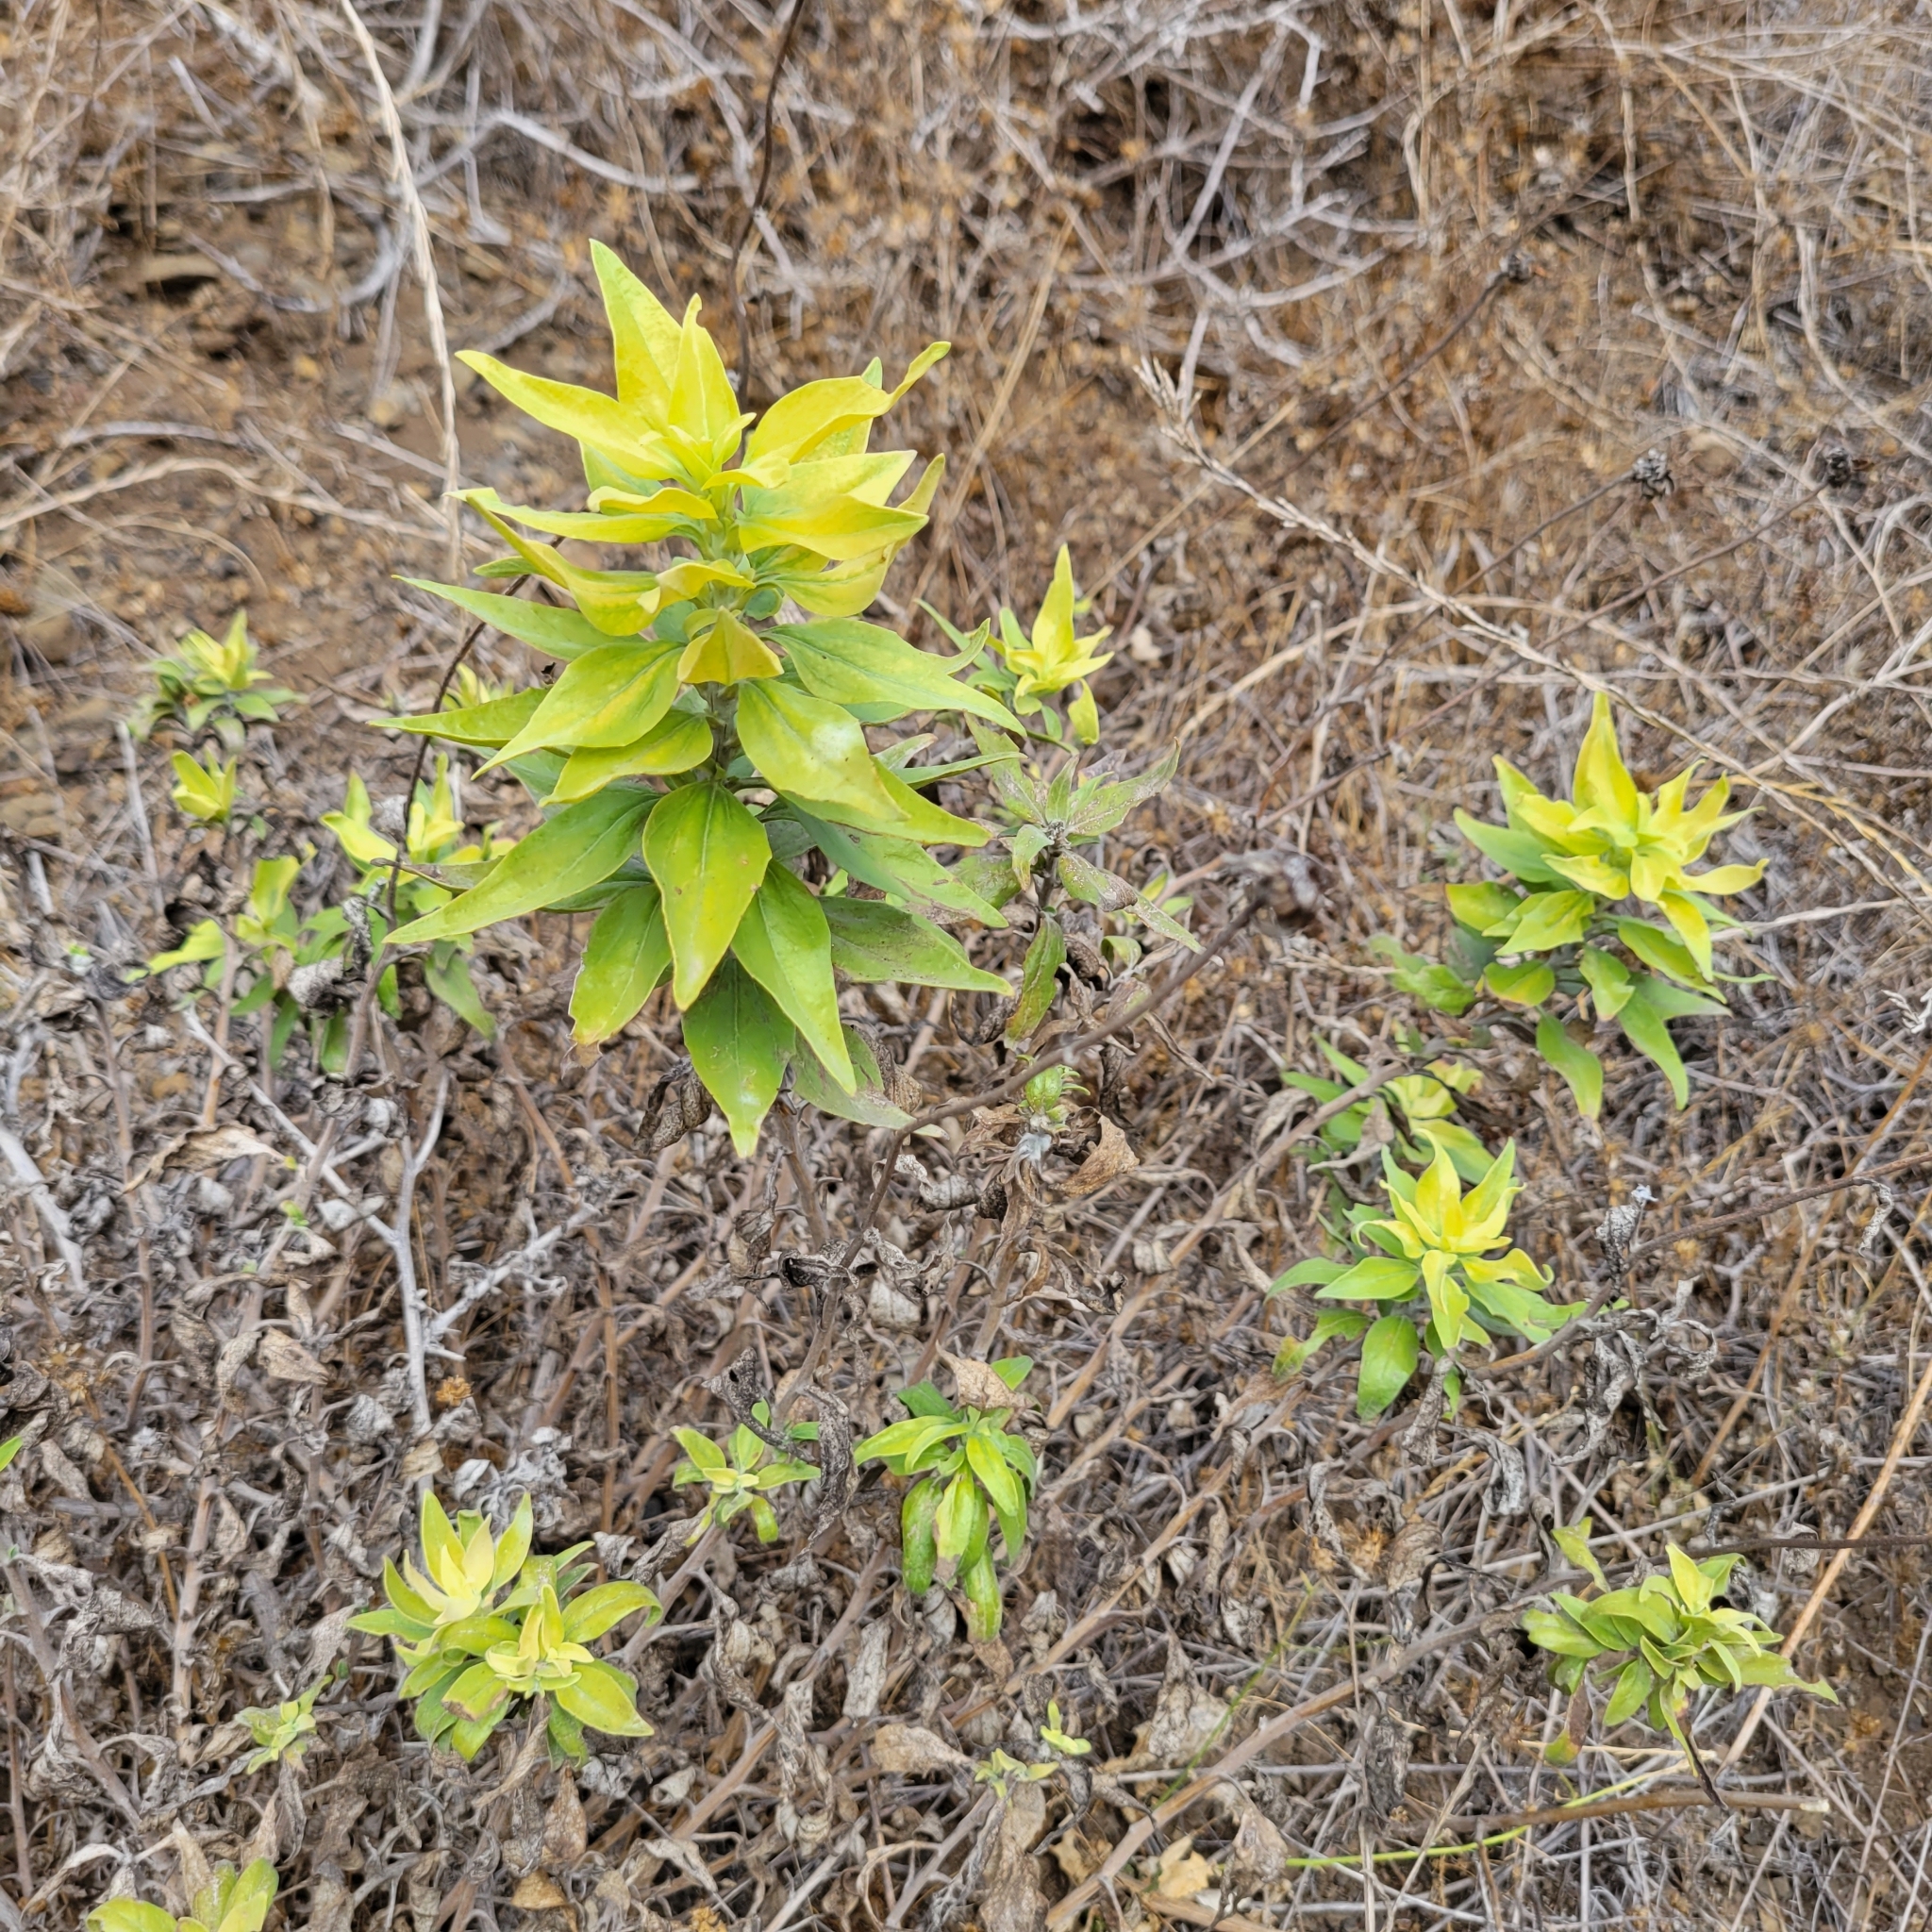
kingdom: Plantae
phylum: Tracheophyta
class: Magnoliopsida
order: Asterales
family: Asteraceae
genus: Encelia
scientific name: Encelia californica
